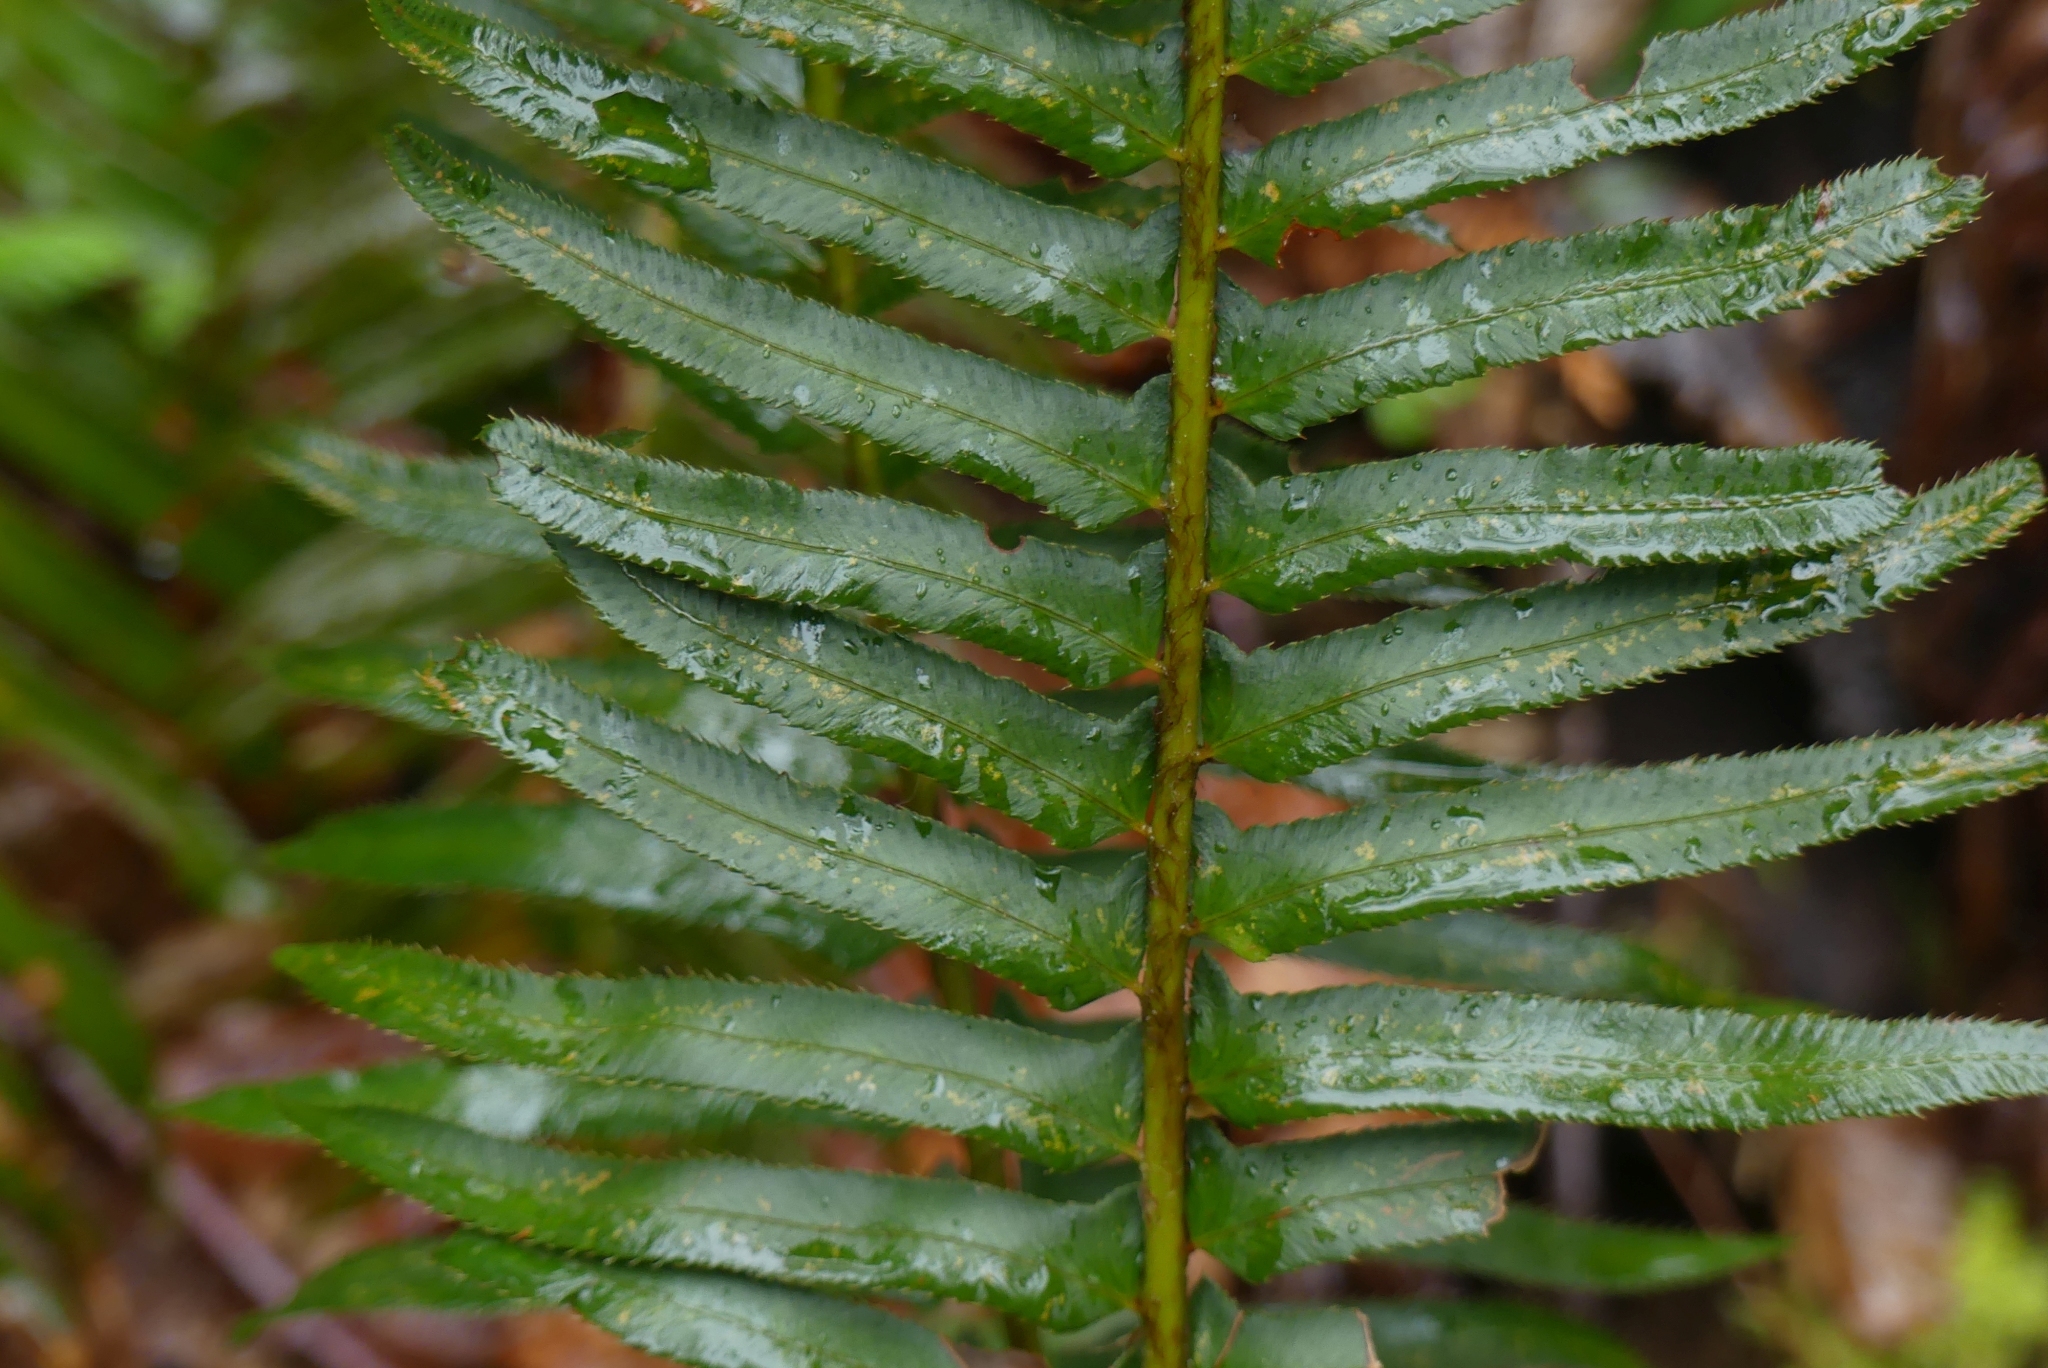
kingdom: Plantae
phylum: Tracheophyta
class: Polypodiopsida
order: Polypodiales
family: Dryopteridaceae
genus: Polystichum
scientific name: Polystichum munitum
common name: Western sword-fern
